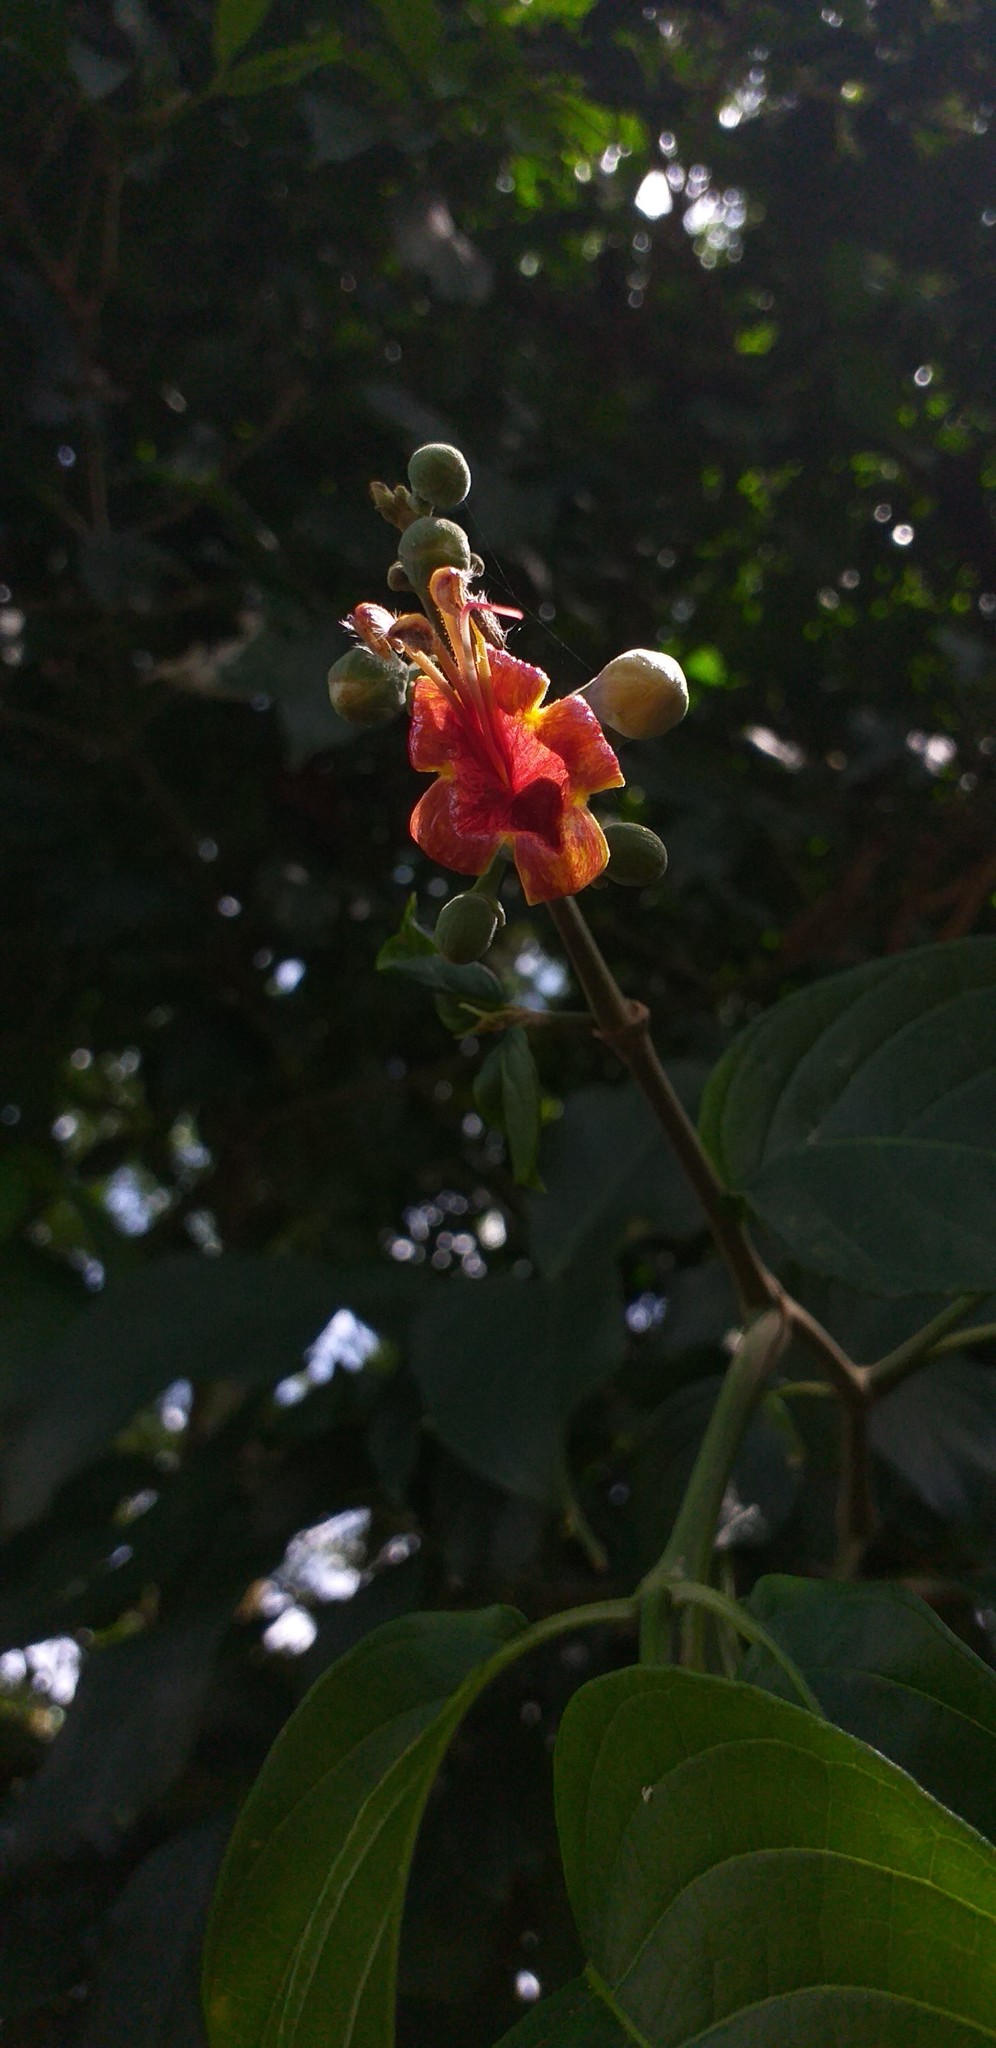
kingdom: Plantae
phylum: Tracheophyta
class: Magnoliopsida
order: Lamiales
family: Acanthaceae
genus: Trichanthera
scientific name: Trichanthera gigantea
